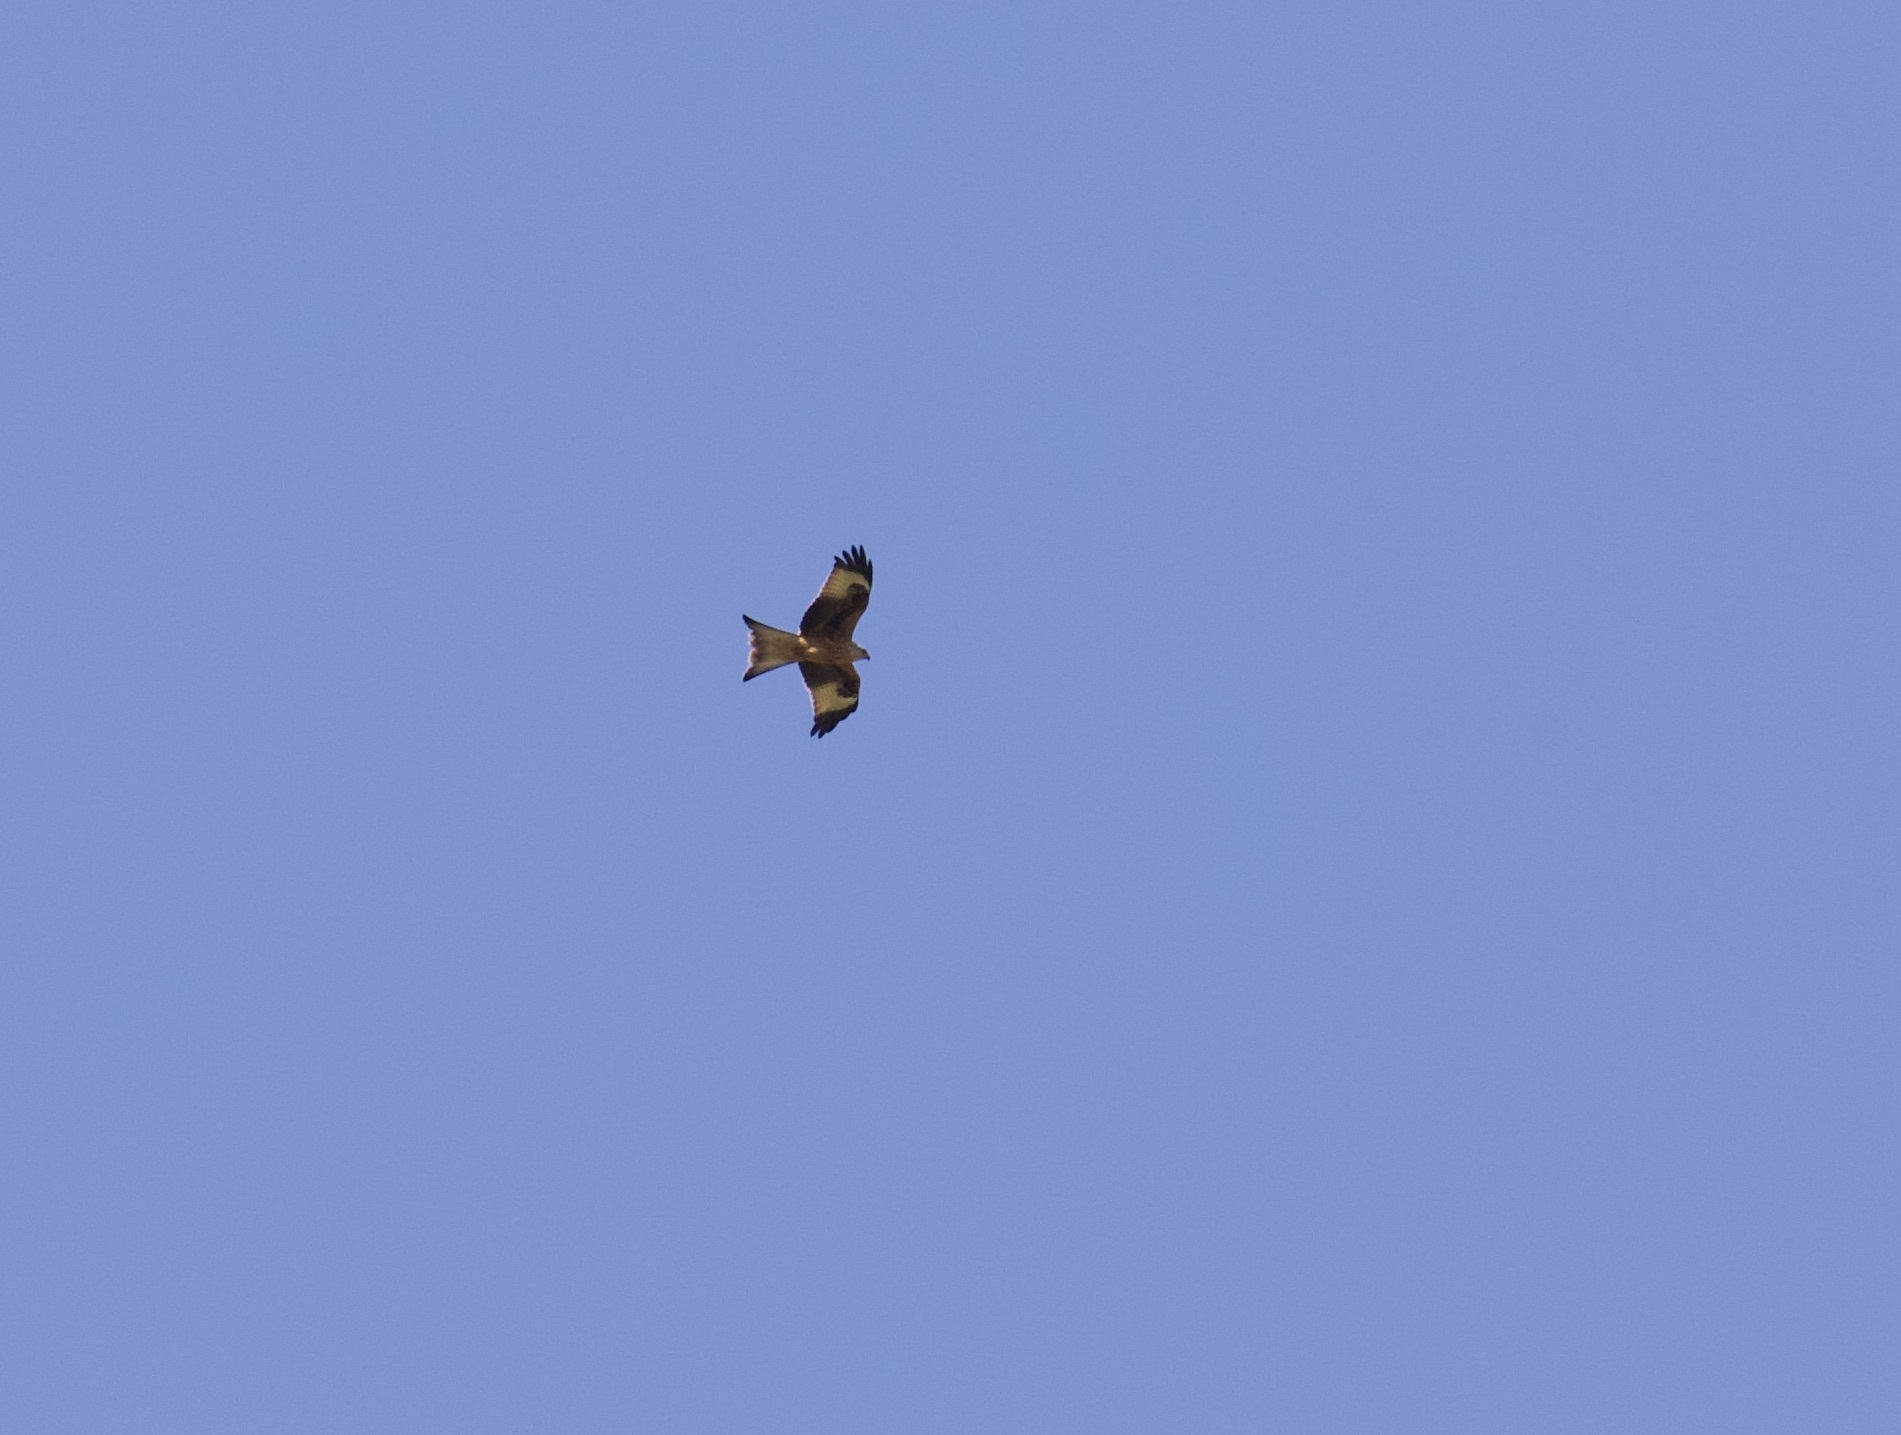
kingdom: Animalia
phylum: Chordata
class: Aves
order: Accipitriformes
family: Accipitridae
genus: Milvus
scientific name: Milvus milvus
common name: Red kite
